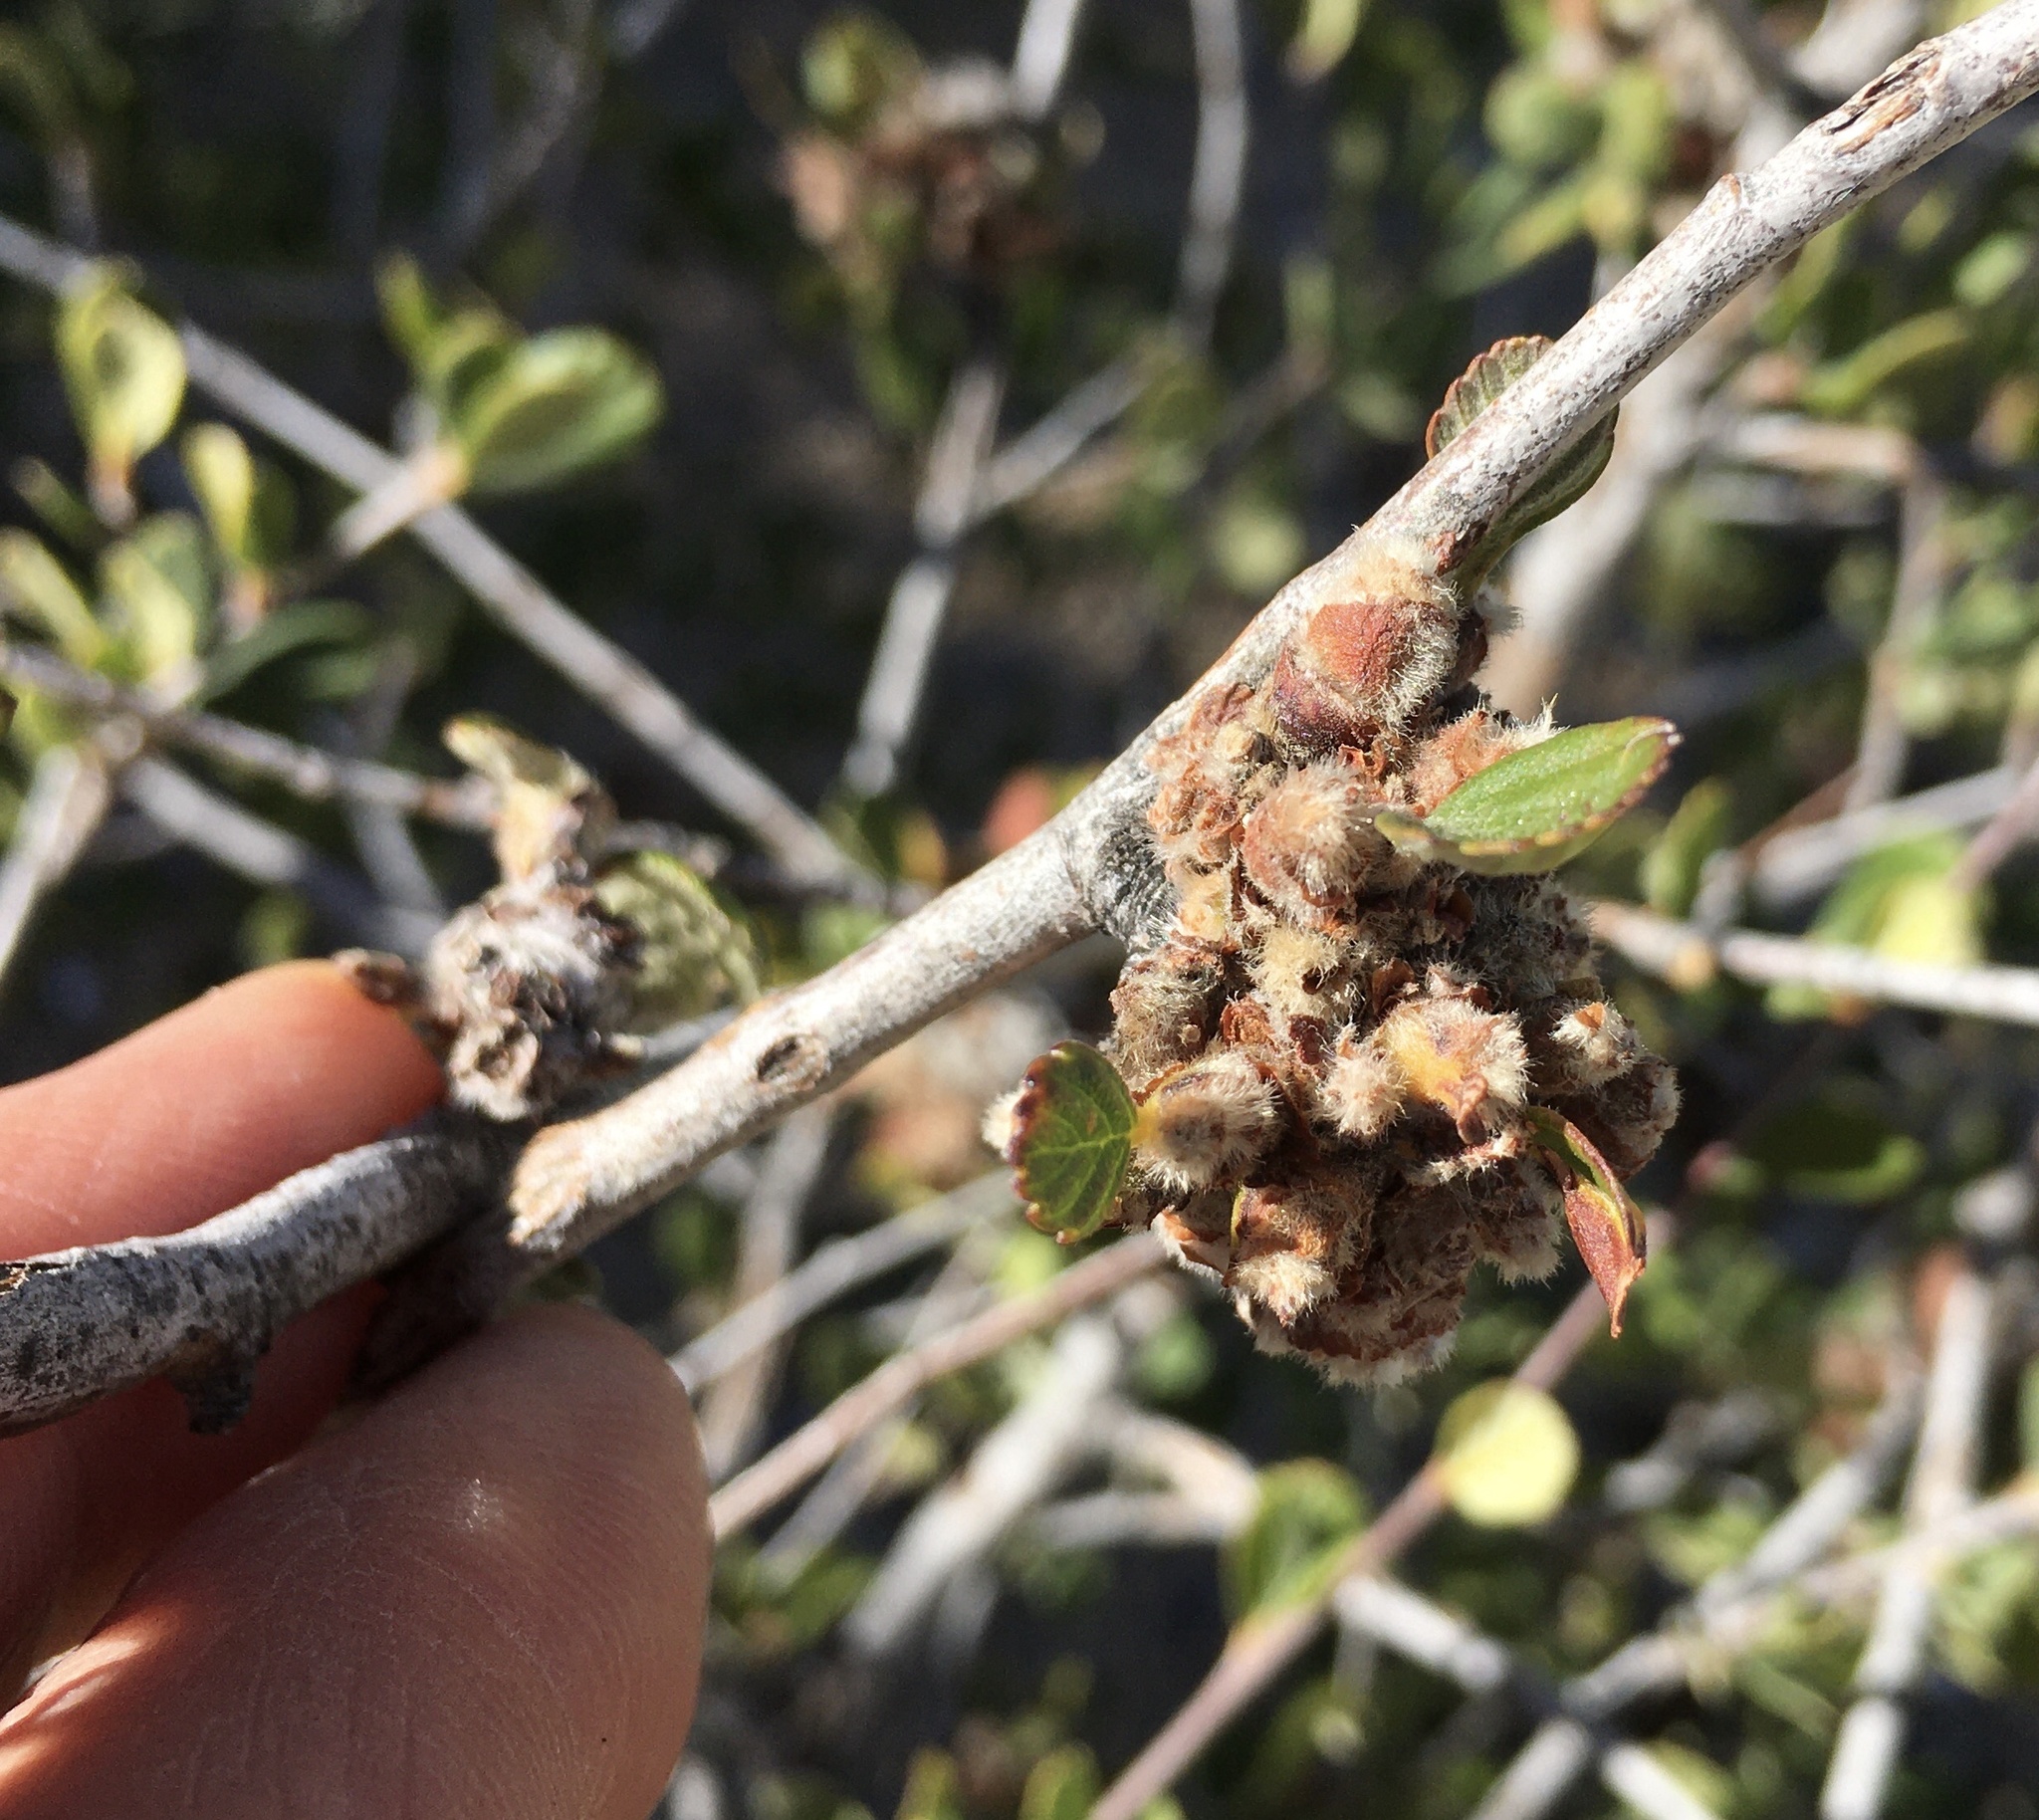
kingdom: Animalia
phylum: Arthropoda
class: Insecta
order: Diptera
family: Cecidomyiidae
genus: Dasineura
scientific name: Dasineura cercocarpi
